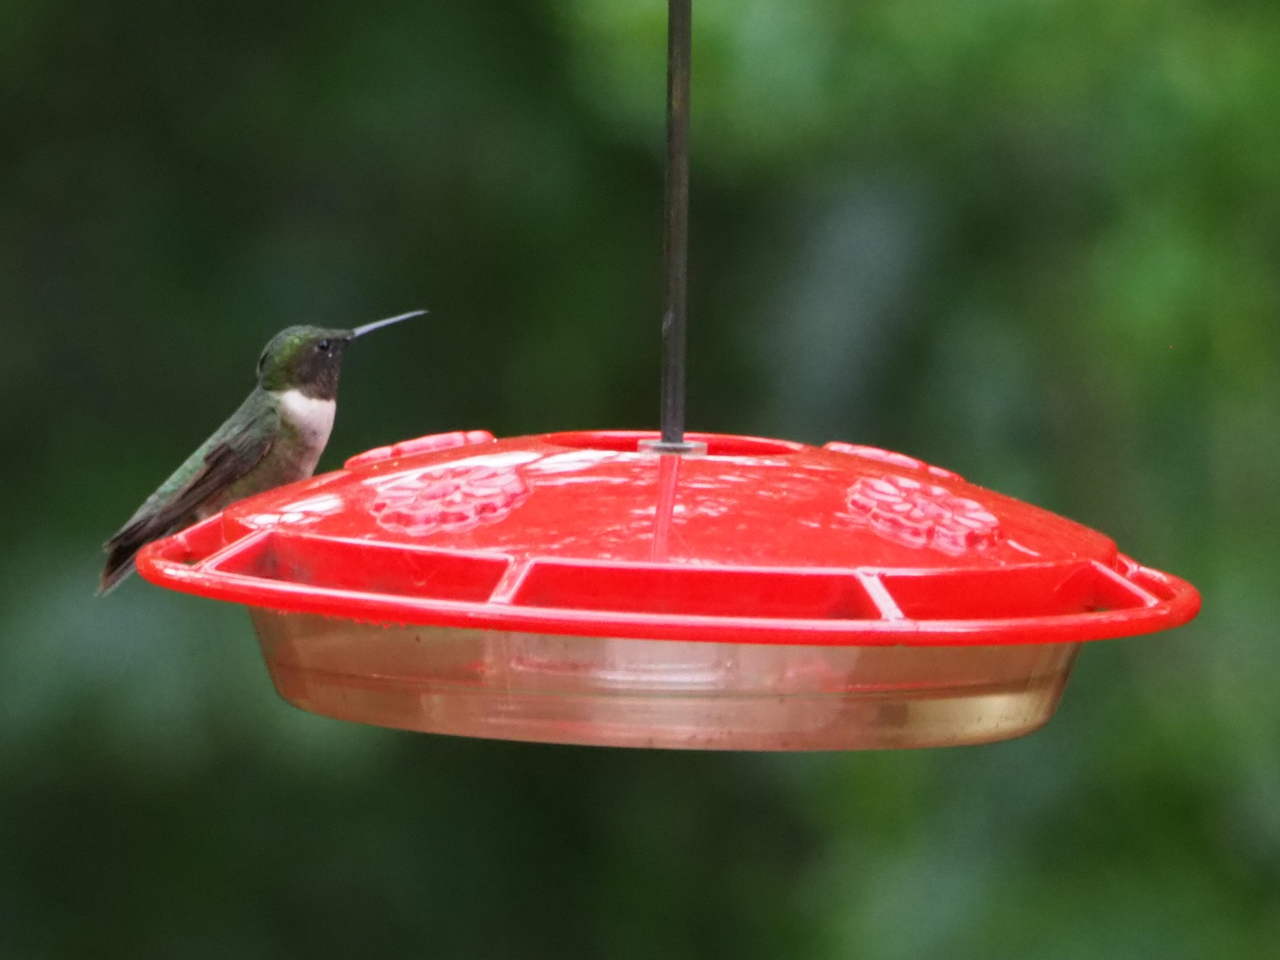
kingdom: Animalia
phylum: Chordata
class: Aves
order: Apodiformes
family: Trochilidae
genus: Archilochus
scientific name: Archilochus colubris
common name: Ruby-throated hummingbird
